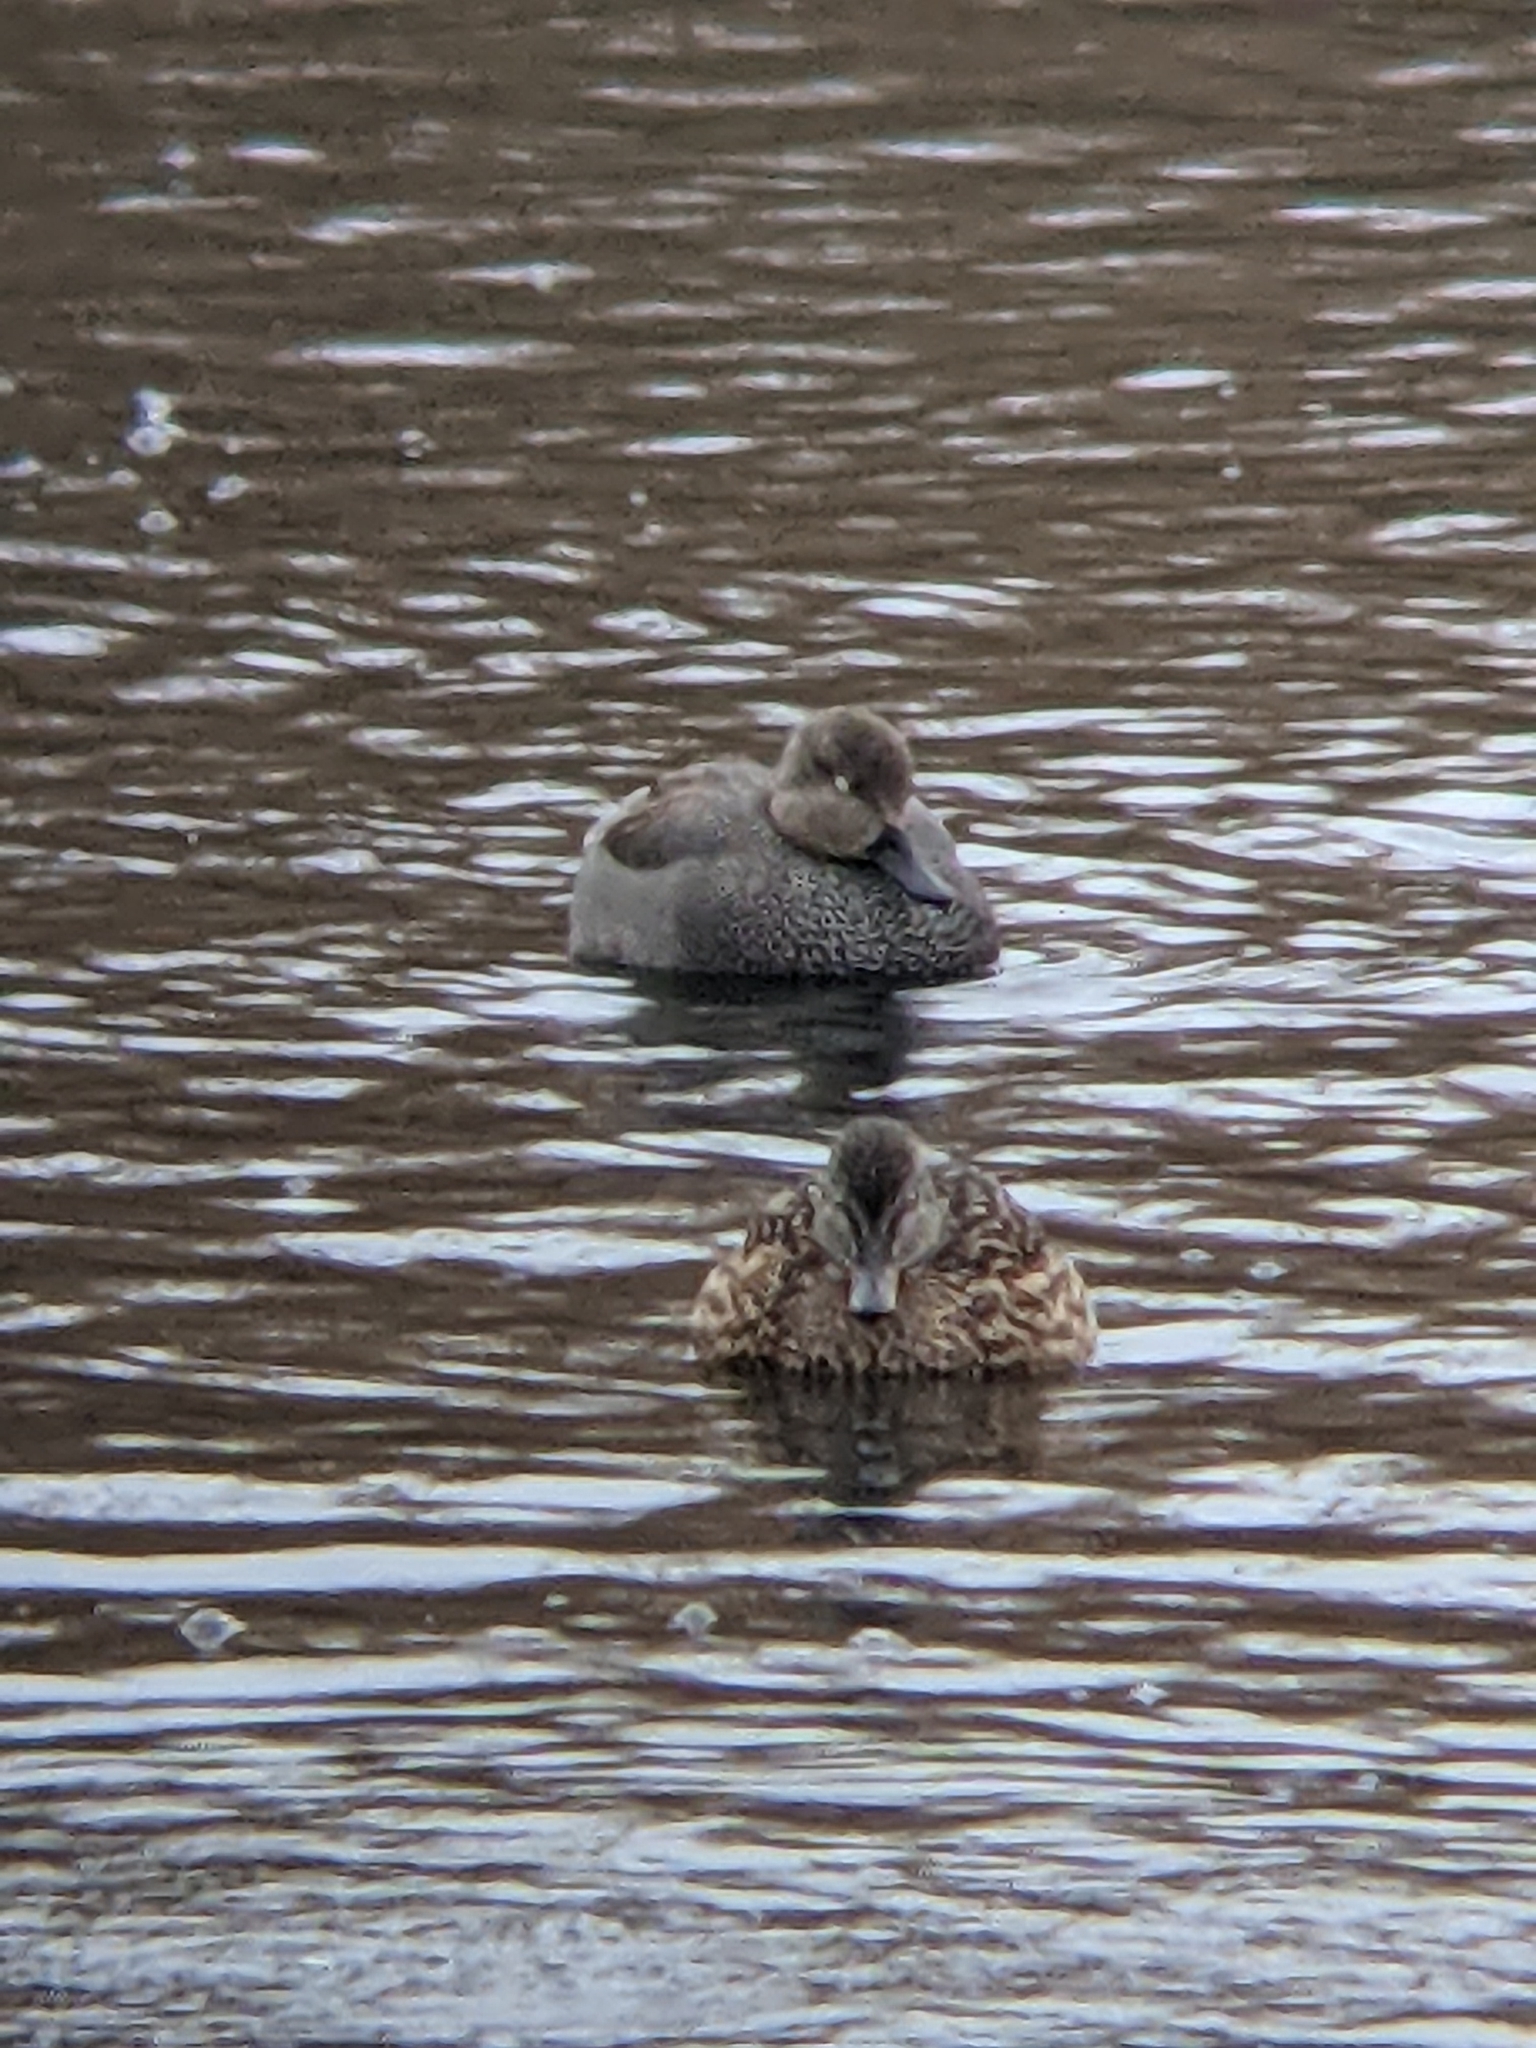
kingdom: Animalia
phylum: Chordata
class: Aves
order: Anseriformes
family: Anatidae
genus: Mareca
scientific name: Mareca strepera
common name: Gadwall
